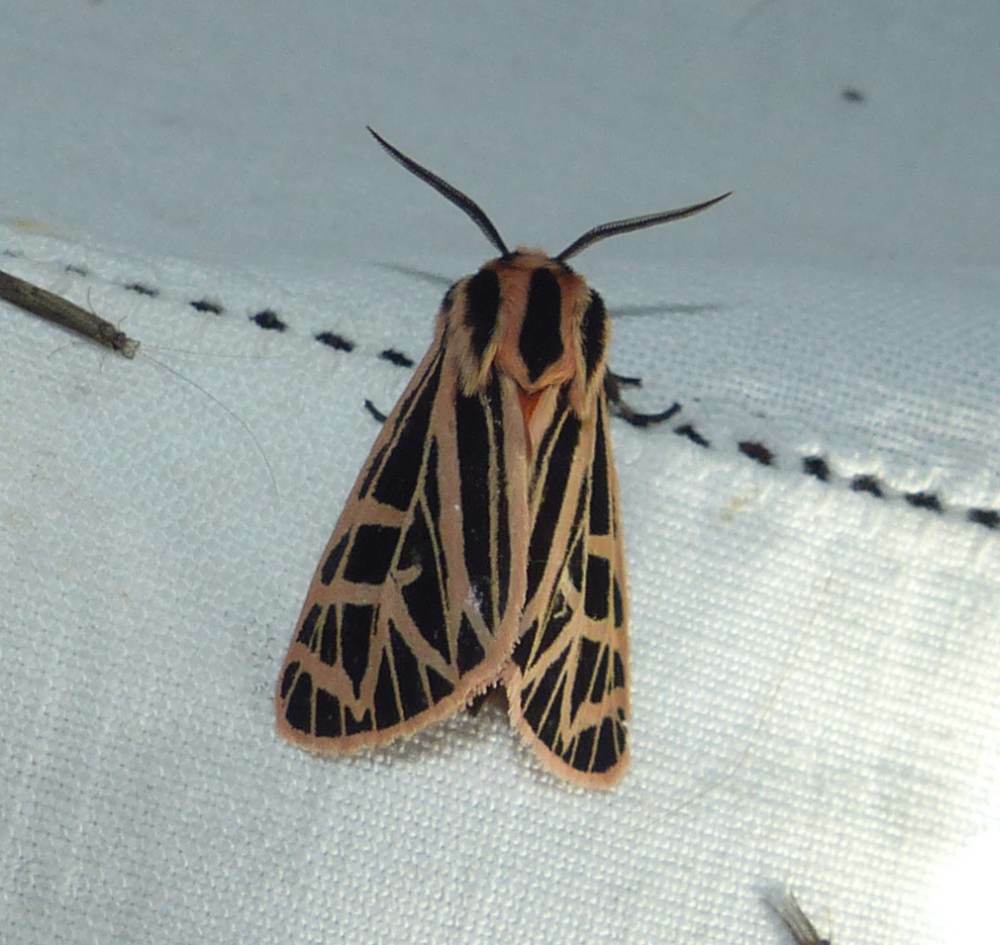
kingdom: Animalia
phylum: Arthropoda
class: Insecta
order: Lepidoptera
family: Erebidae
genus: Grammia
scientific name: Grammia parthenice
